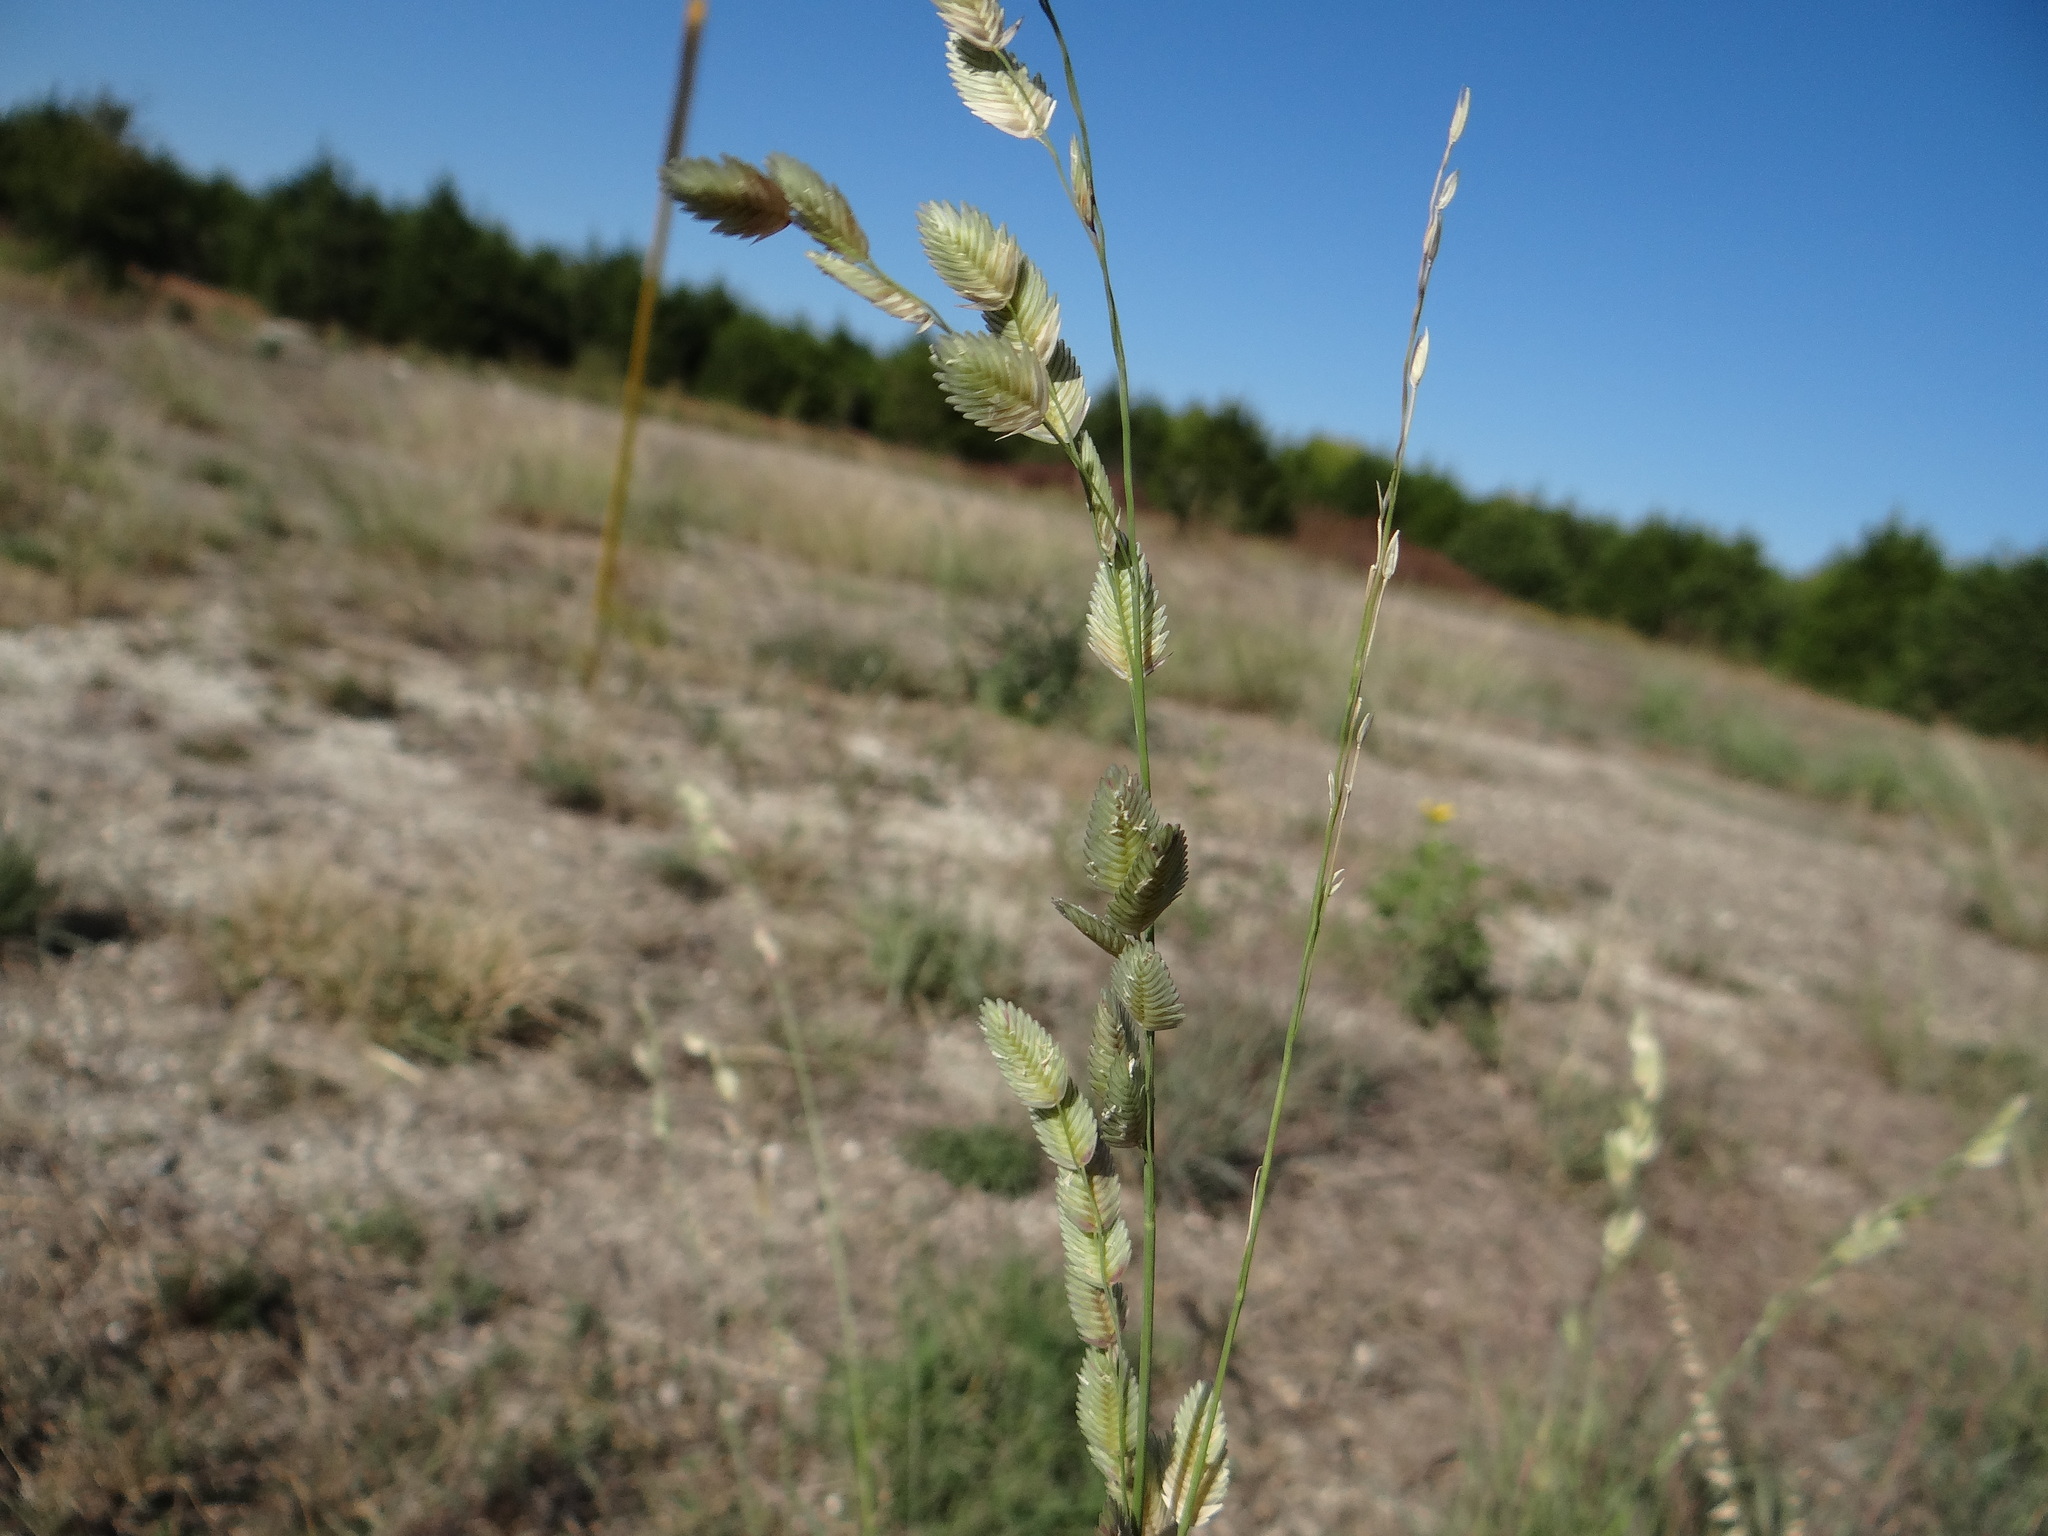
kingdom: Plantae
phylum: Tracheophyta
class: Liliopsida
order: Poales
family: Poaceae
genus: Eragrostis
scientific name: Eragrostis superba
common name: Wilman lovegrass
